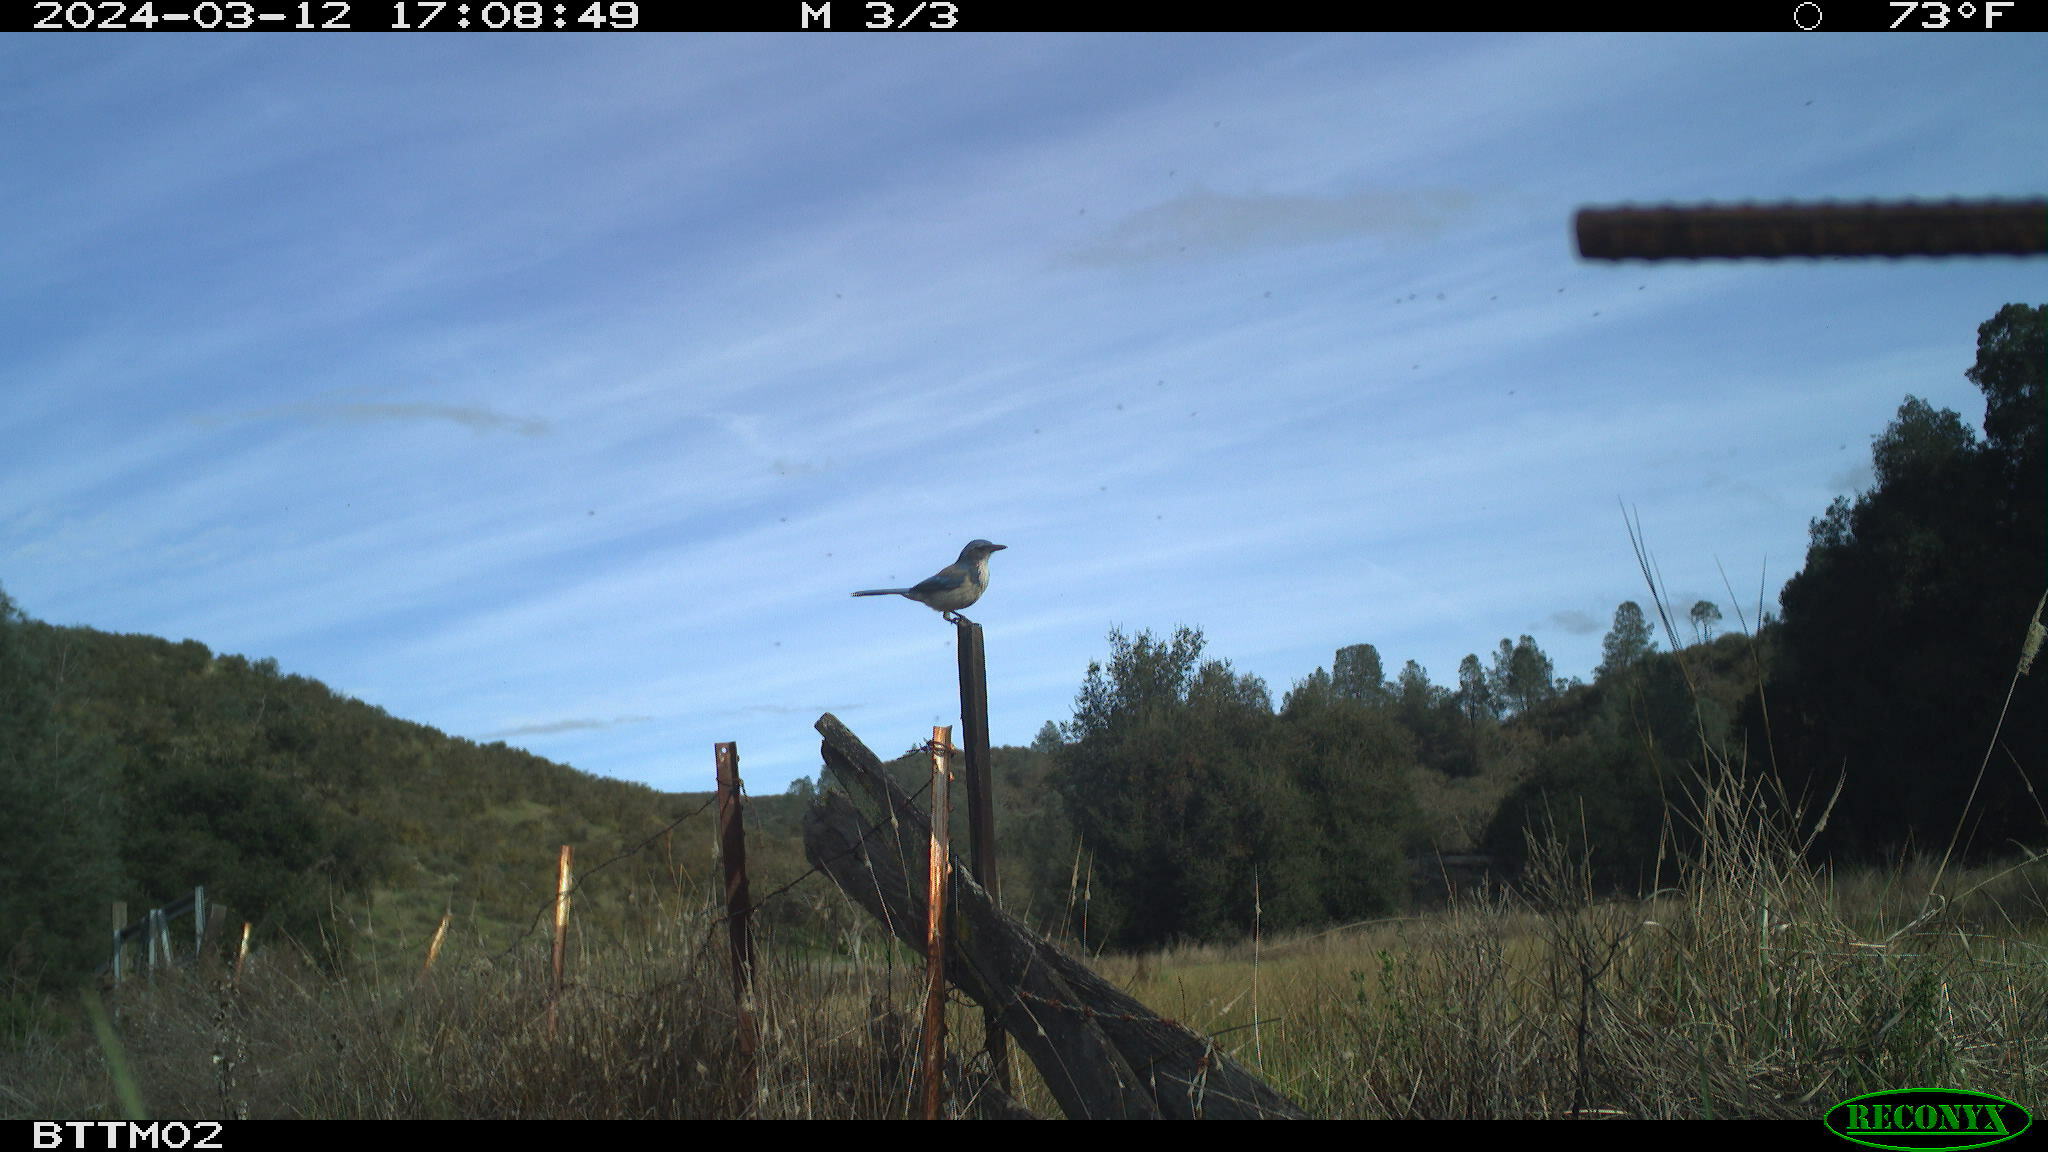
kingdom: Animalia
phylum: Chordata
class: Aves
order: Passeriformes
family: Corvidae
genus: Aphelocoma
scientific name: Aphelocoma californica
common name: California scrub-jay
